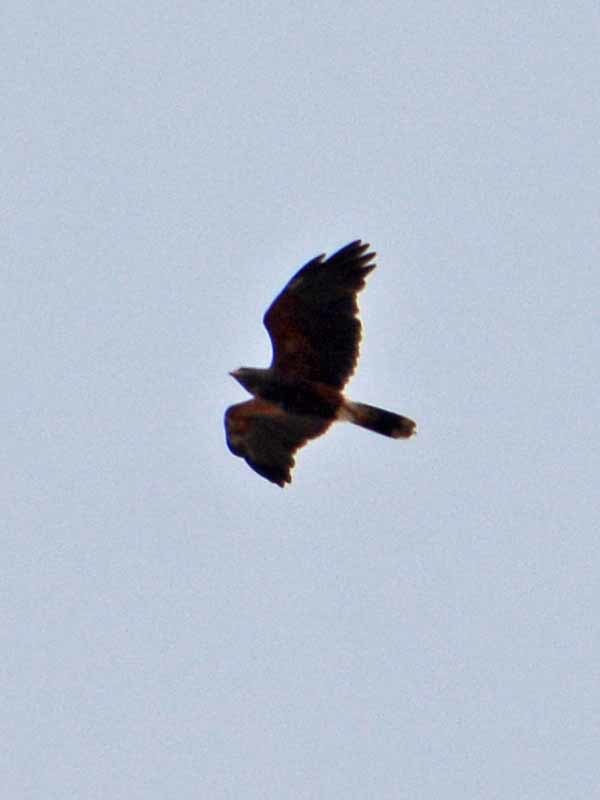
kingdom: Animalia
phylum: Chordata
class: Aves
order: Accipitriformes
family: Accipitridae
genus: Parabuteo
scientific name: Parabuteo unicinctus
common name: Harris's hawk
